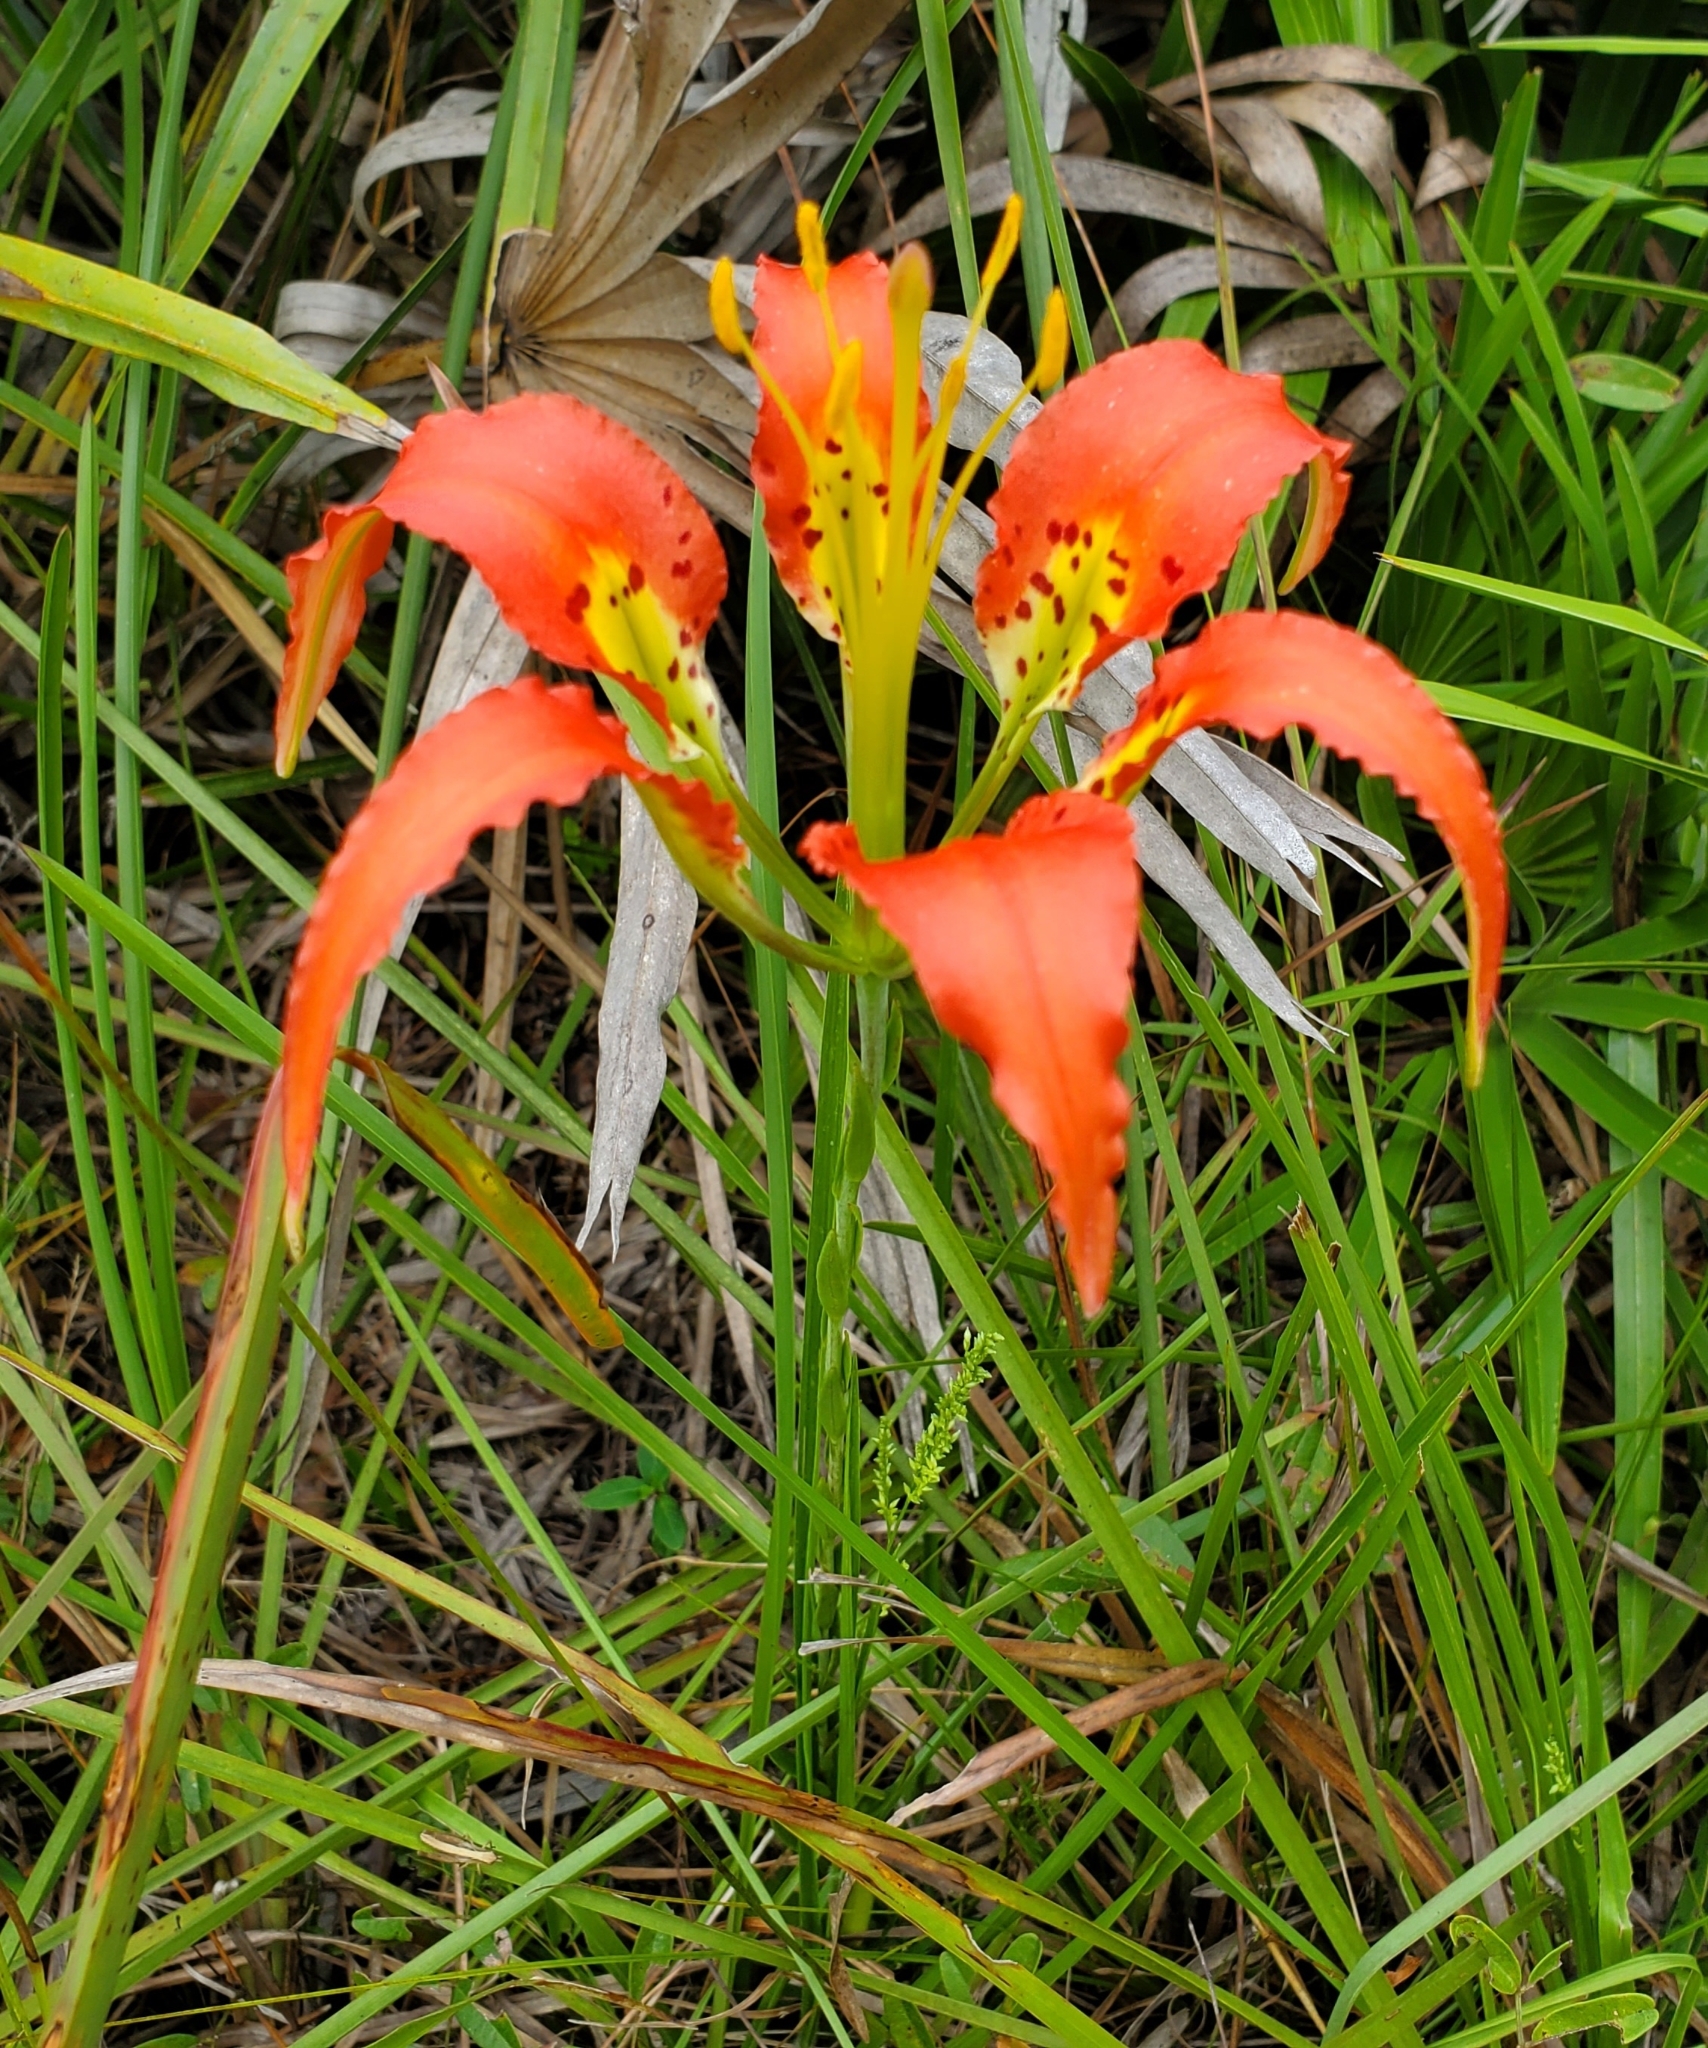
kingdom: Plantae
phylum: Tracheophyta
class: Liliopsida
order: Liliales
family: Liliaceae
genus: Lilium
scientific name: Lilium catesbaei
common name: Catesby's lily
